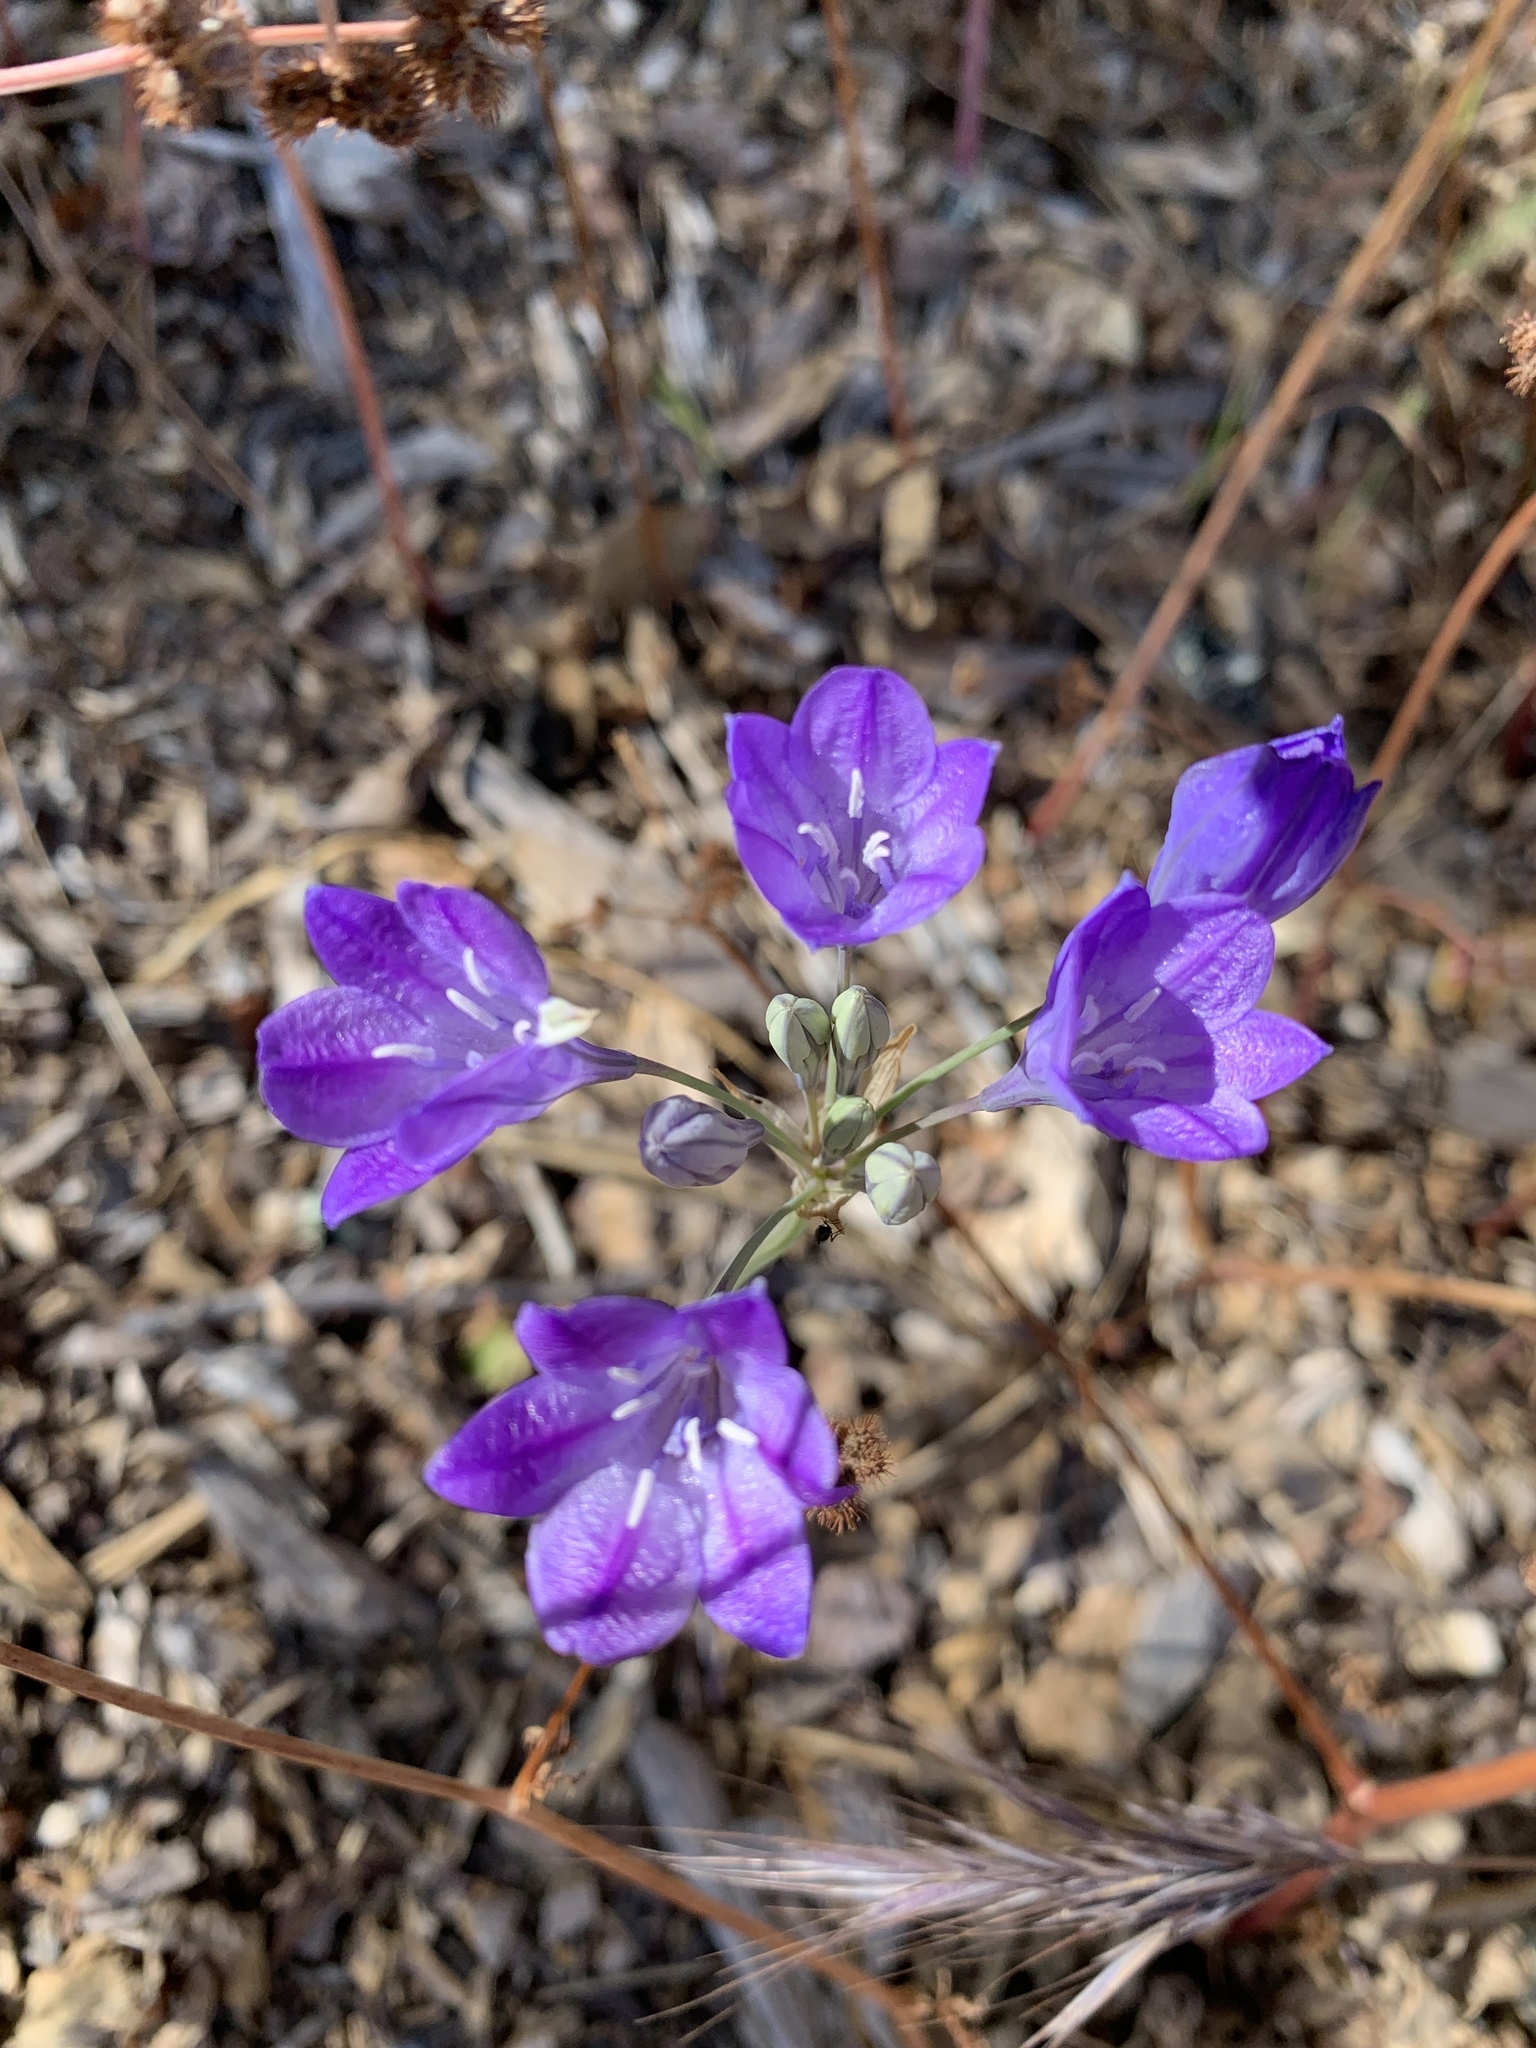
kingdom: Plantae
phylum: Tracheophyta
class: Liliopsida
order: Asparagales
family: Asparagaceae
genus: Triteleia
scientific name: Triteleia laxa
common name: Triplet-lily
